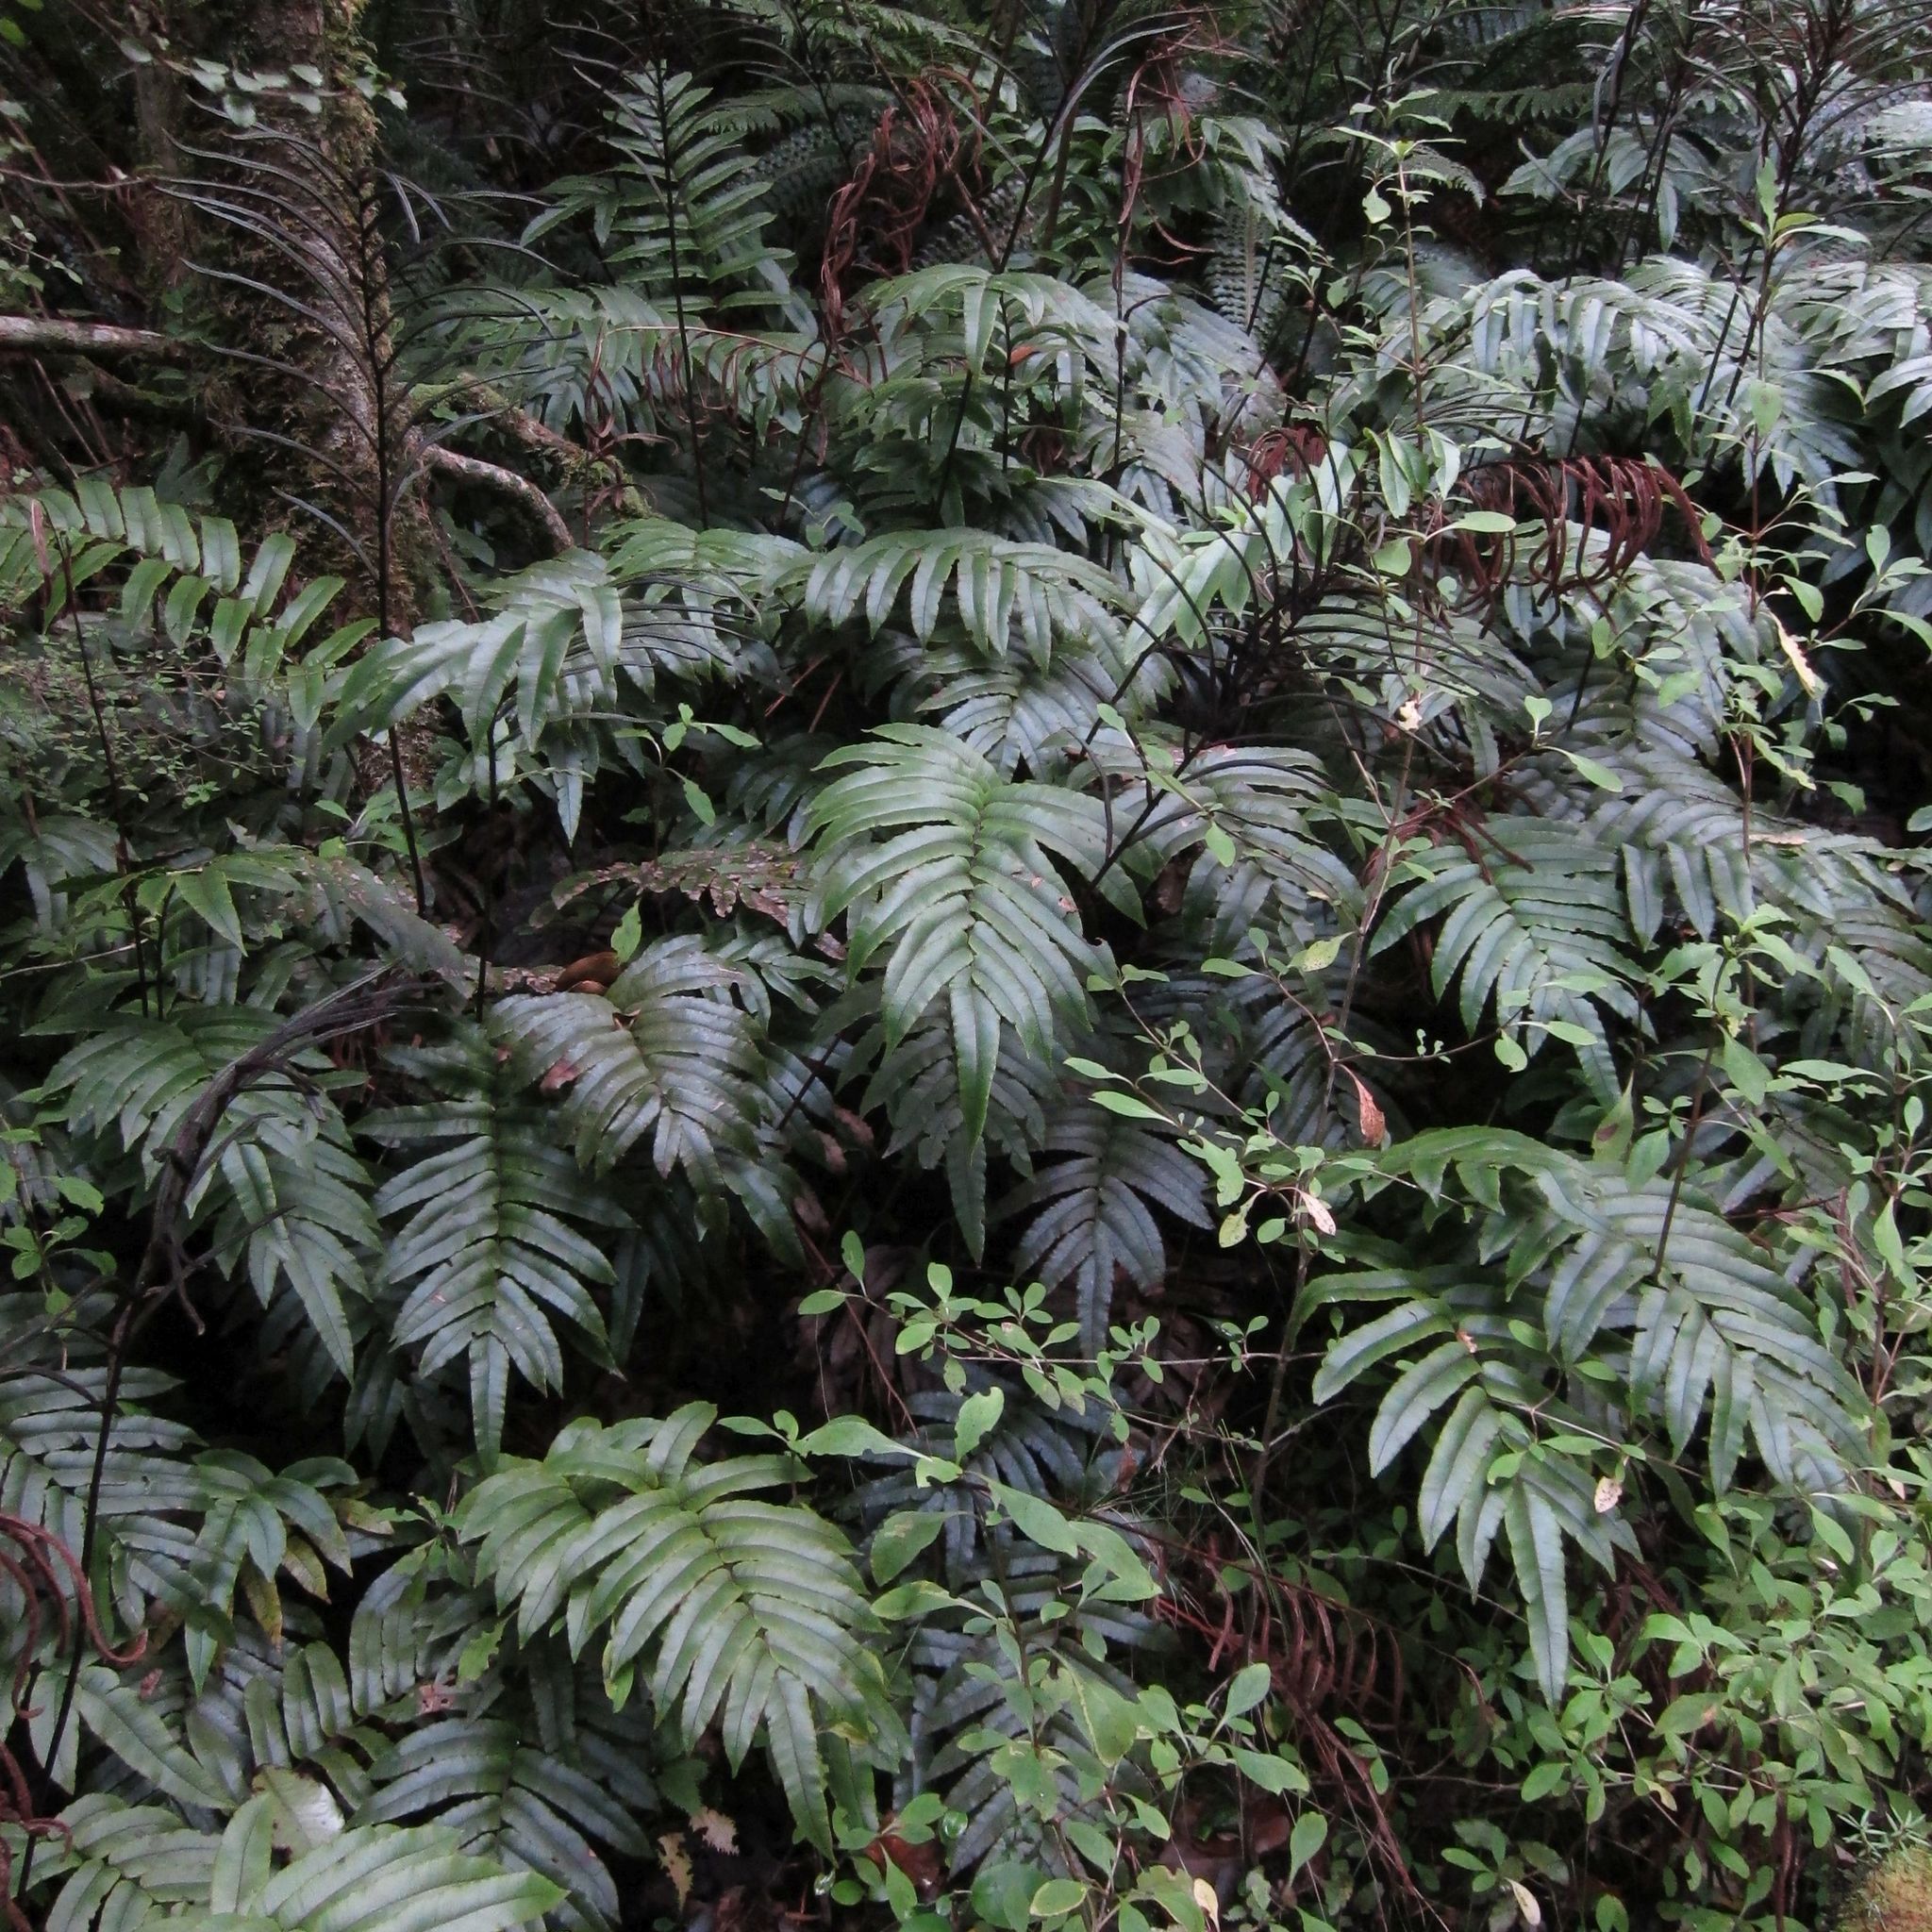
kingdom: Plantae
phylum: Tracheophyta
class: Polypodiopsida
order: Polypodiales
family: Blechnaceae
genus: Parablechnum
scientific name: Parablechnum procerum
